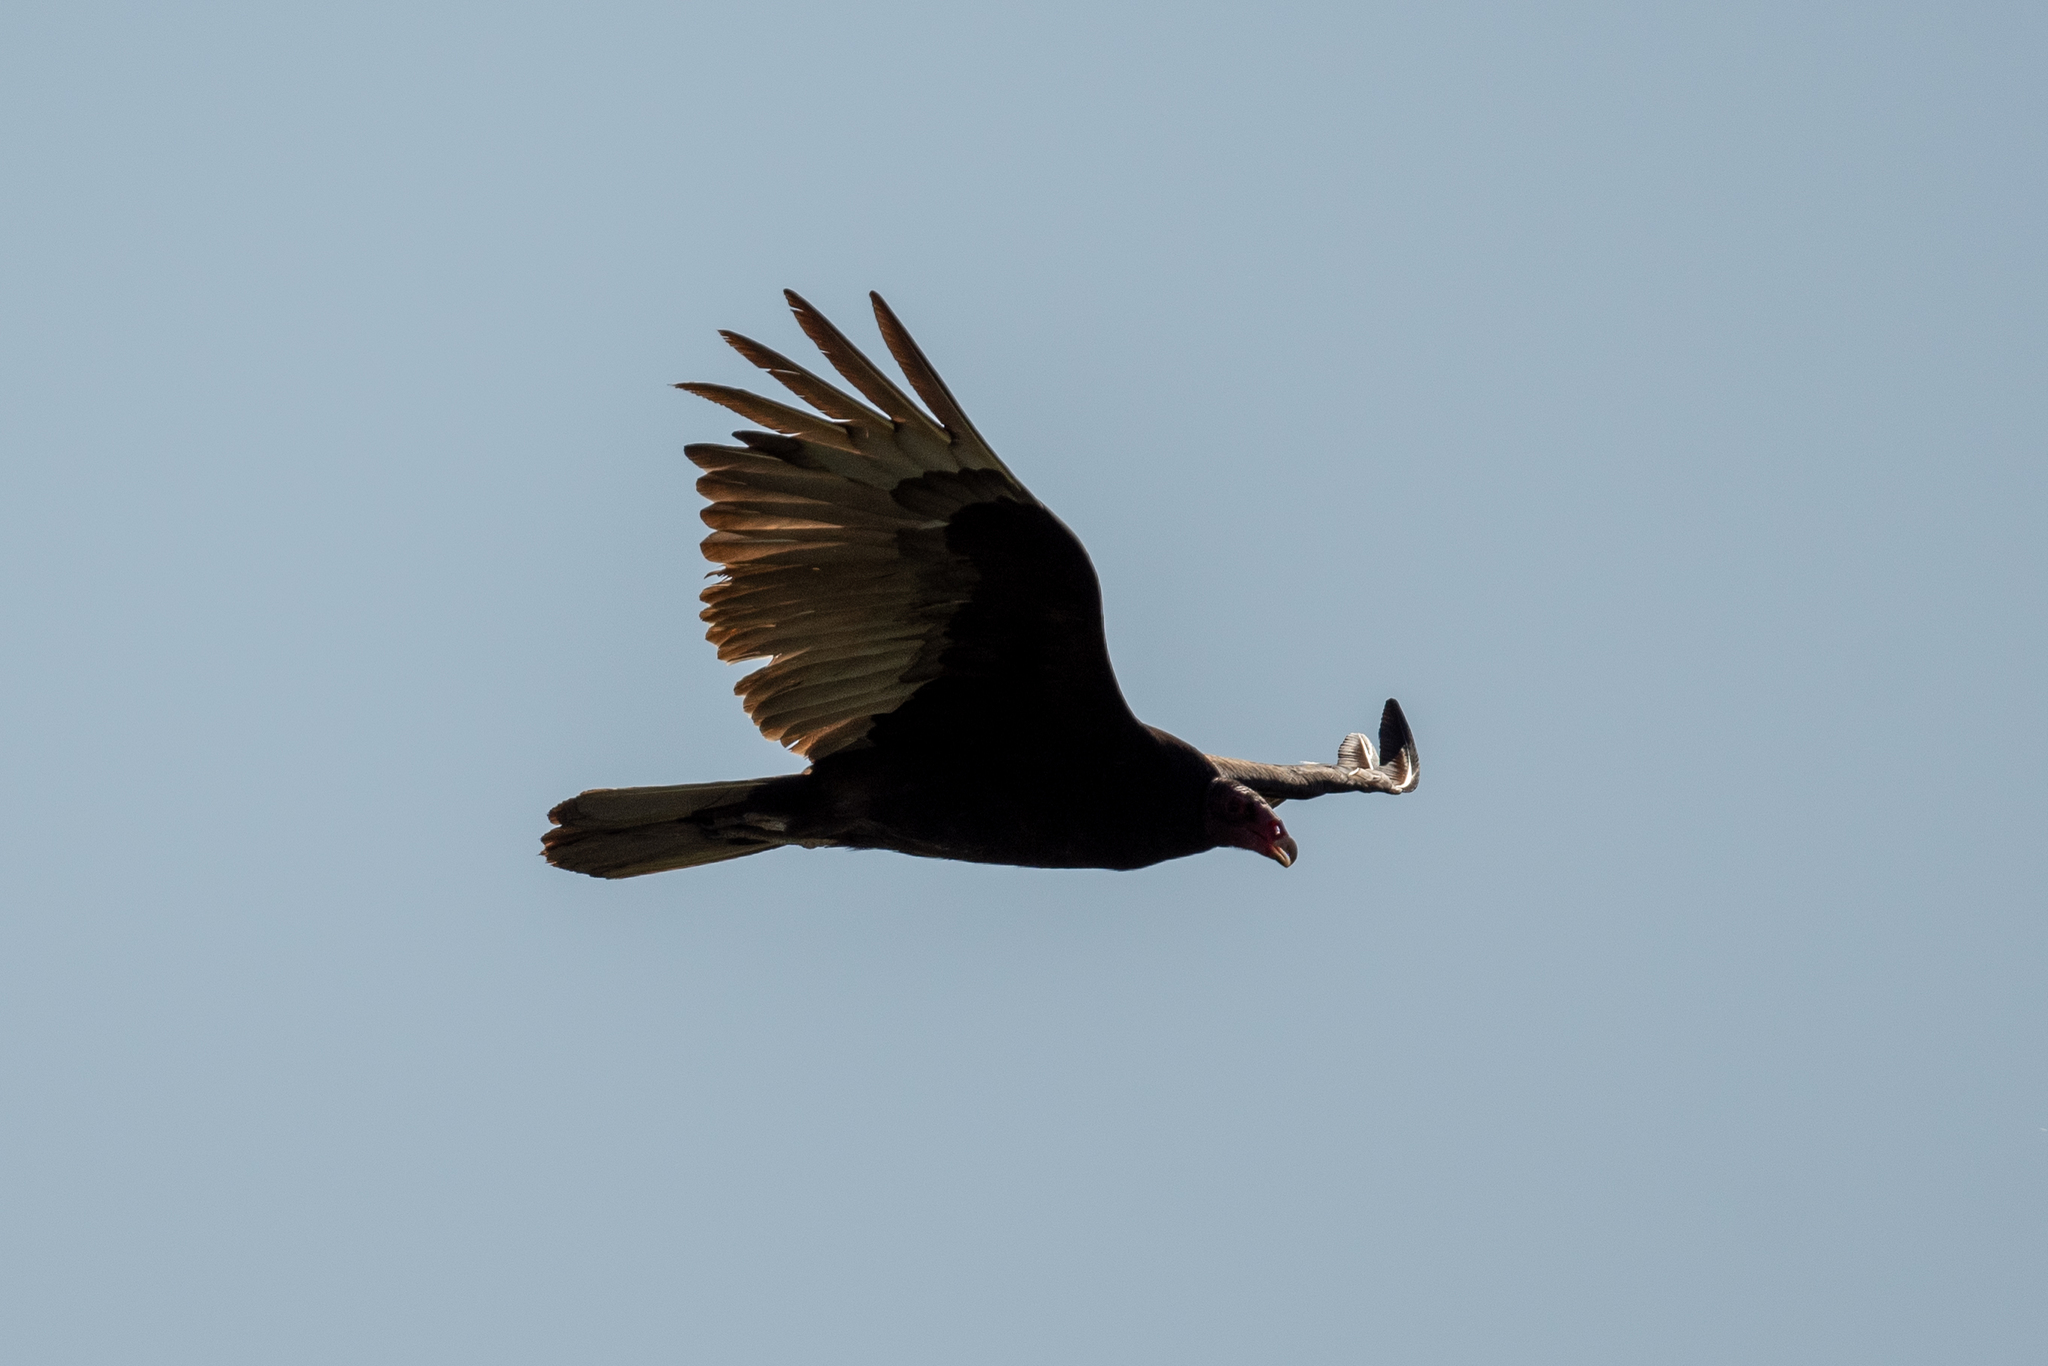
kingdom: Animalia
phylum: Chordata
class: Aves
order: Accipitriformes
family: Cathartidae
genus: Cathartes
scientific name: Cathartes aura
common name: Turkey vulture
